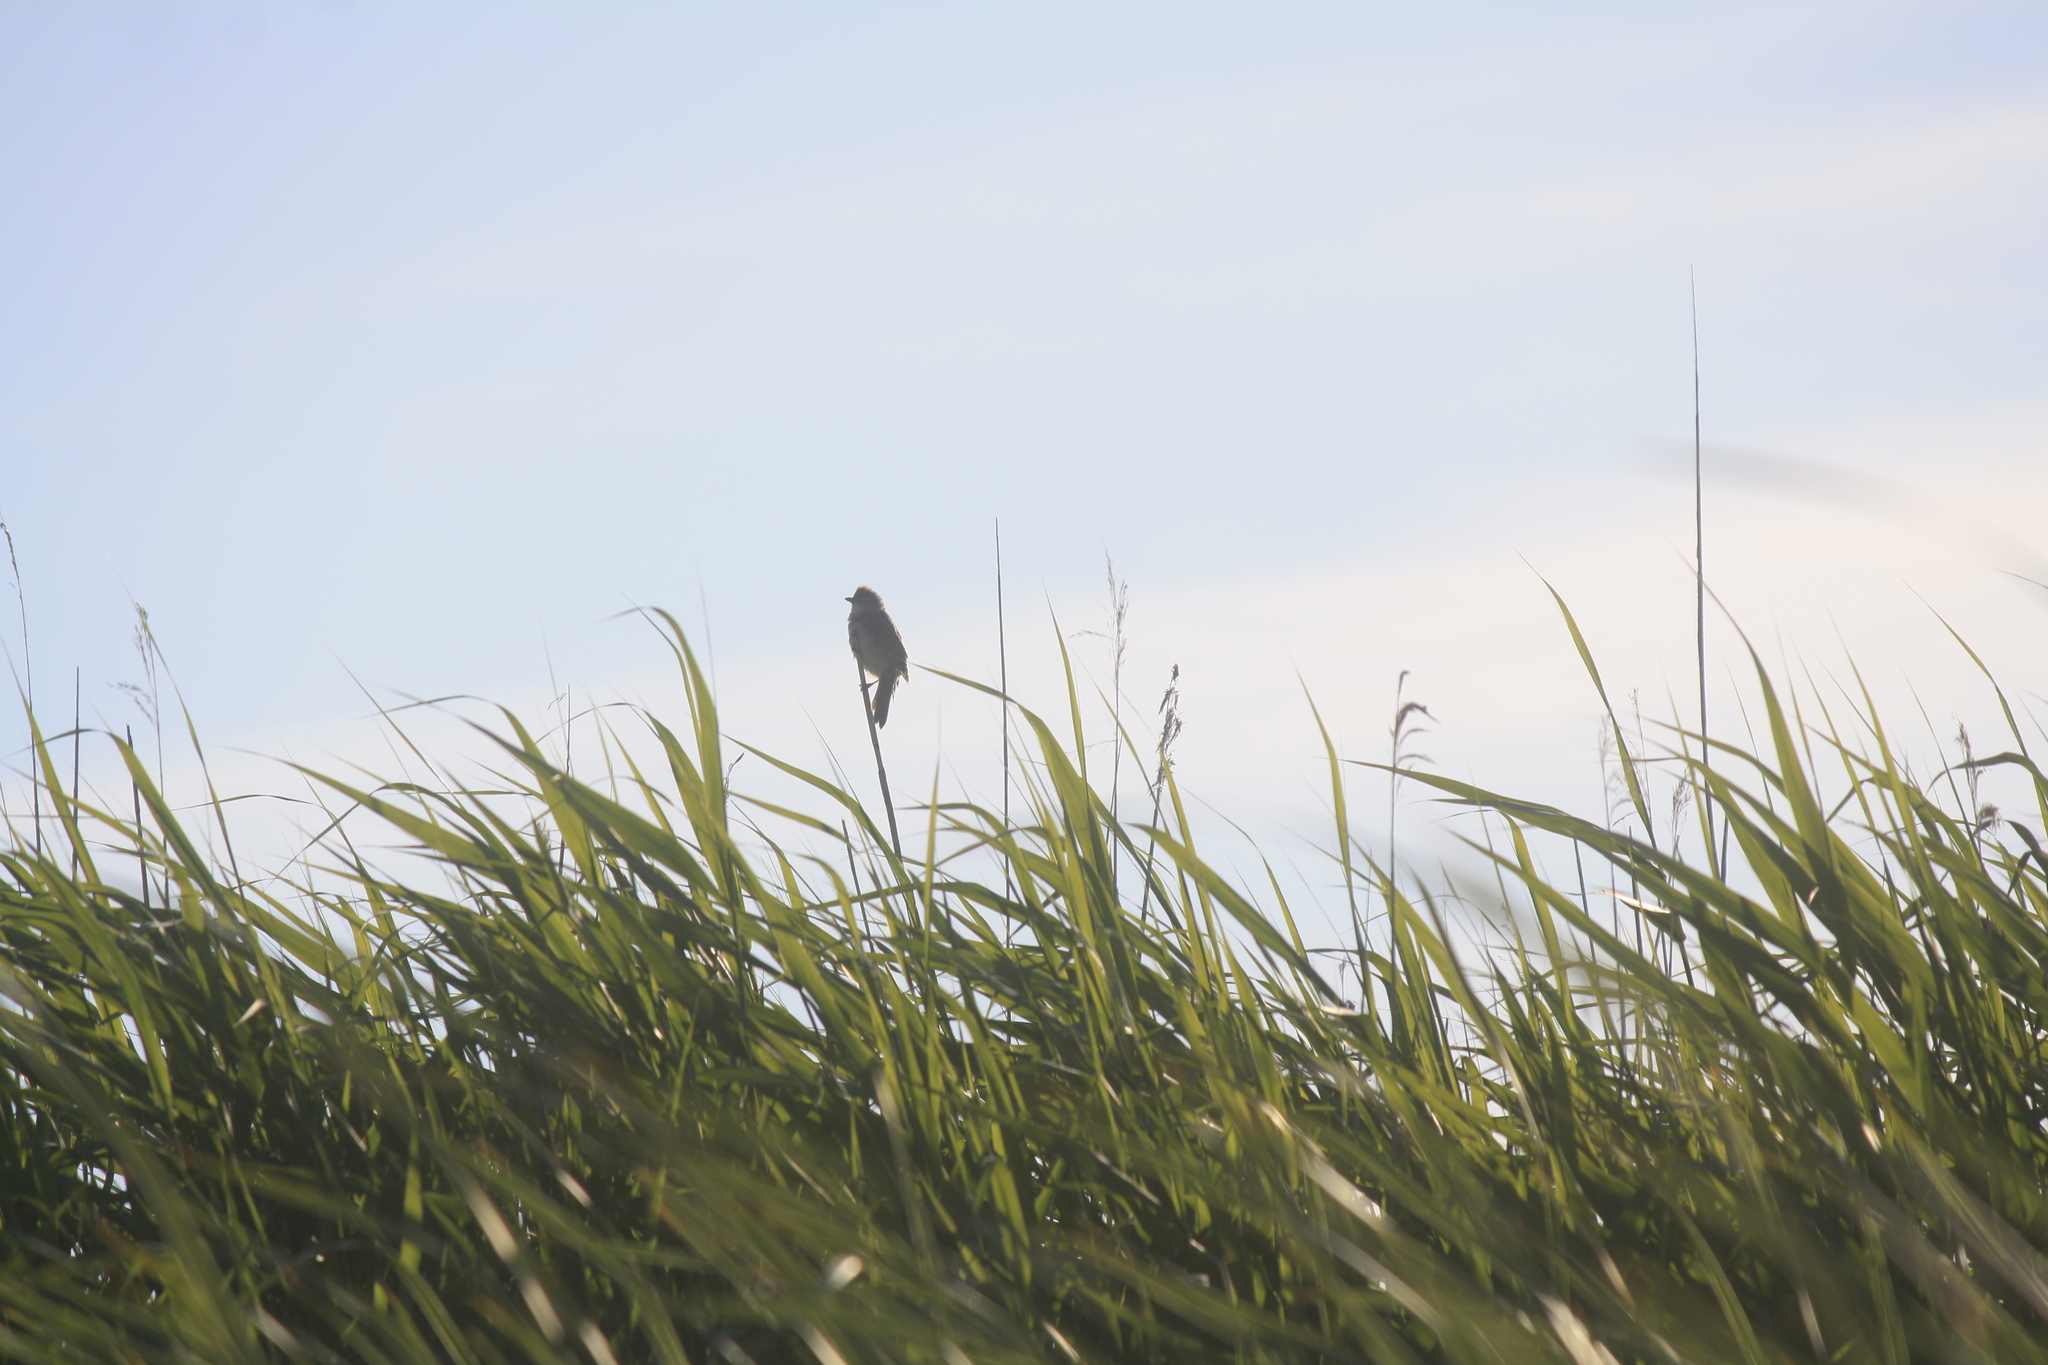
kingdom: Animalia
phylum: Chordata
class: Aves
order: Passeriformes
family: Acrocephalidae
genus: Acrocephalus
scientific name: Acrocephalus arundinaceus
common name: Great reed warbler
